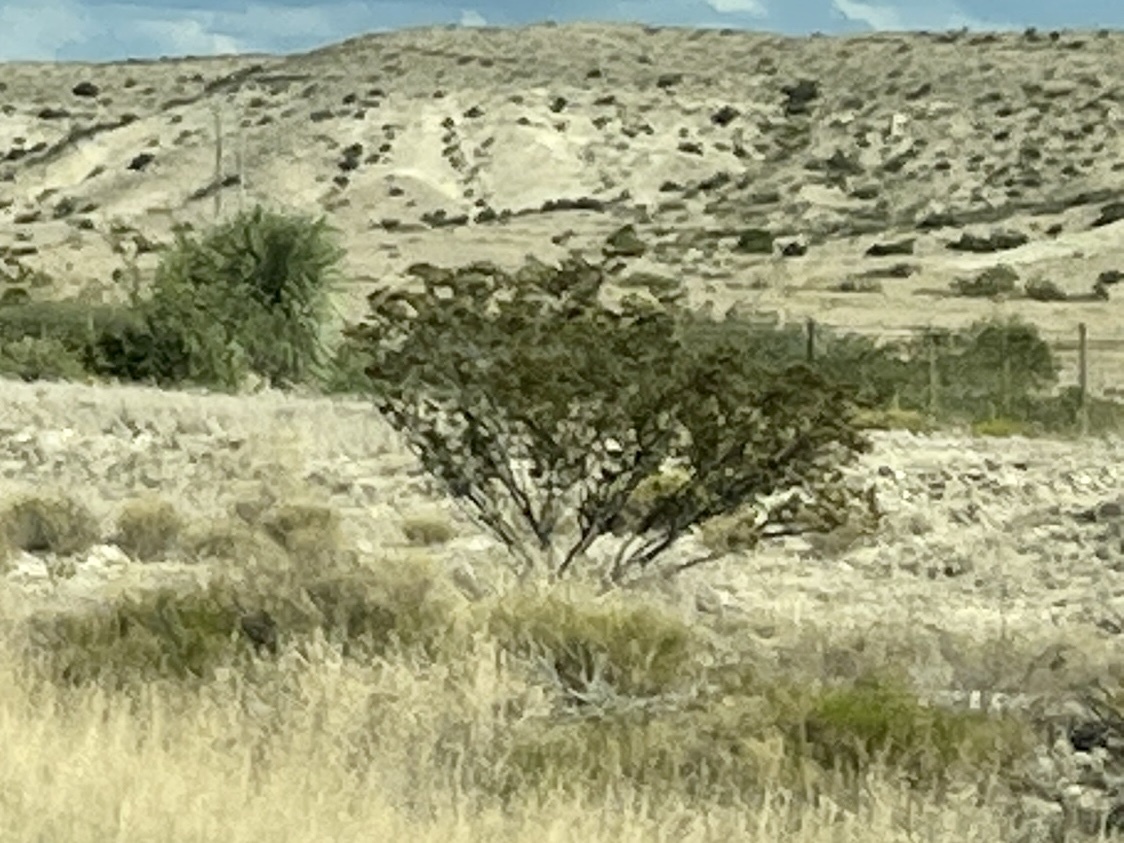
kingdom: Plantae
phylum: Tracheophyta
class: Magnoliopsida
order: Zygophyllales
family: Zygophyllaceae
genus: Larrea
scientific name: Larrea tridentata
